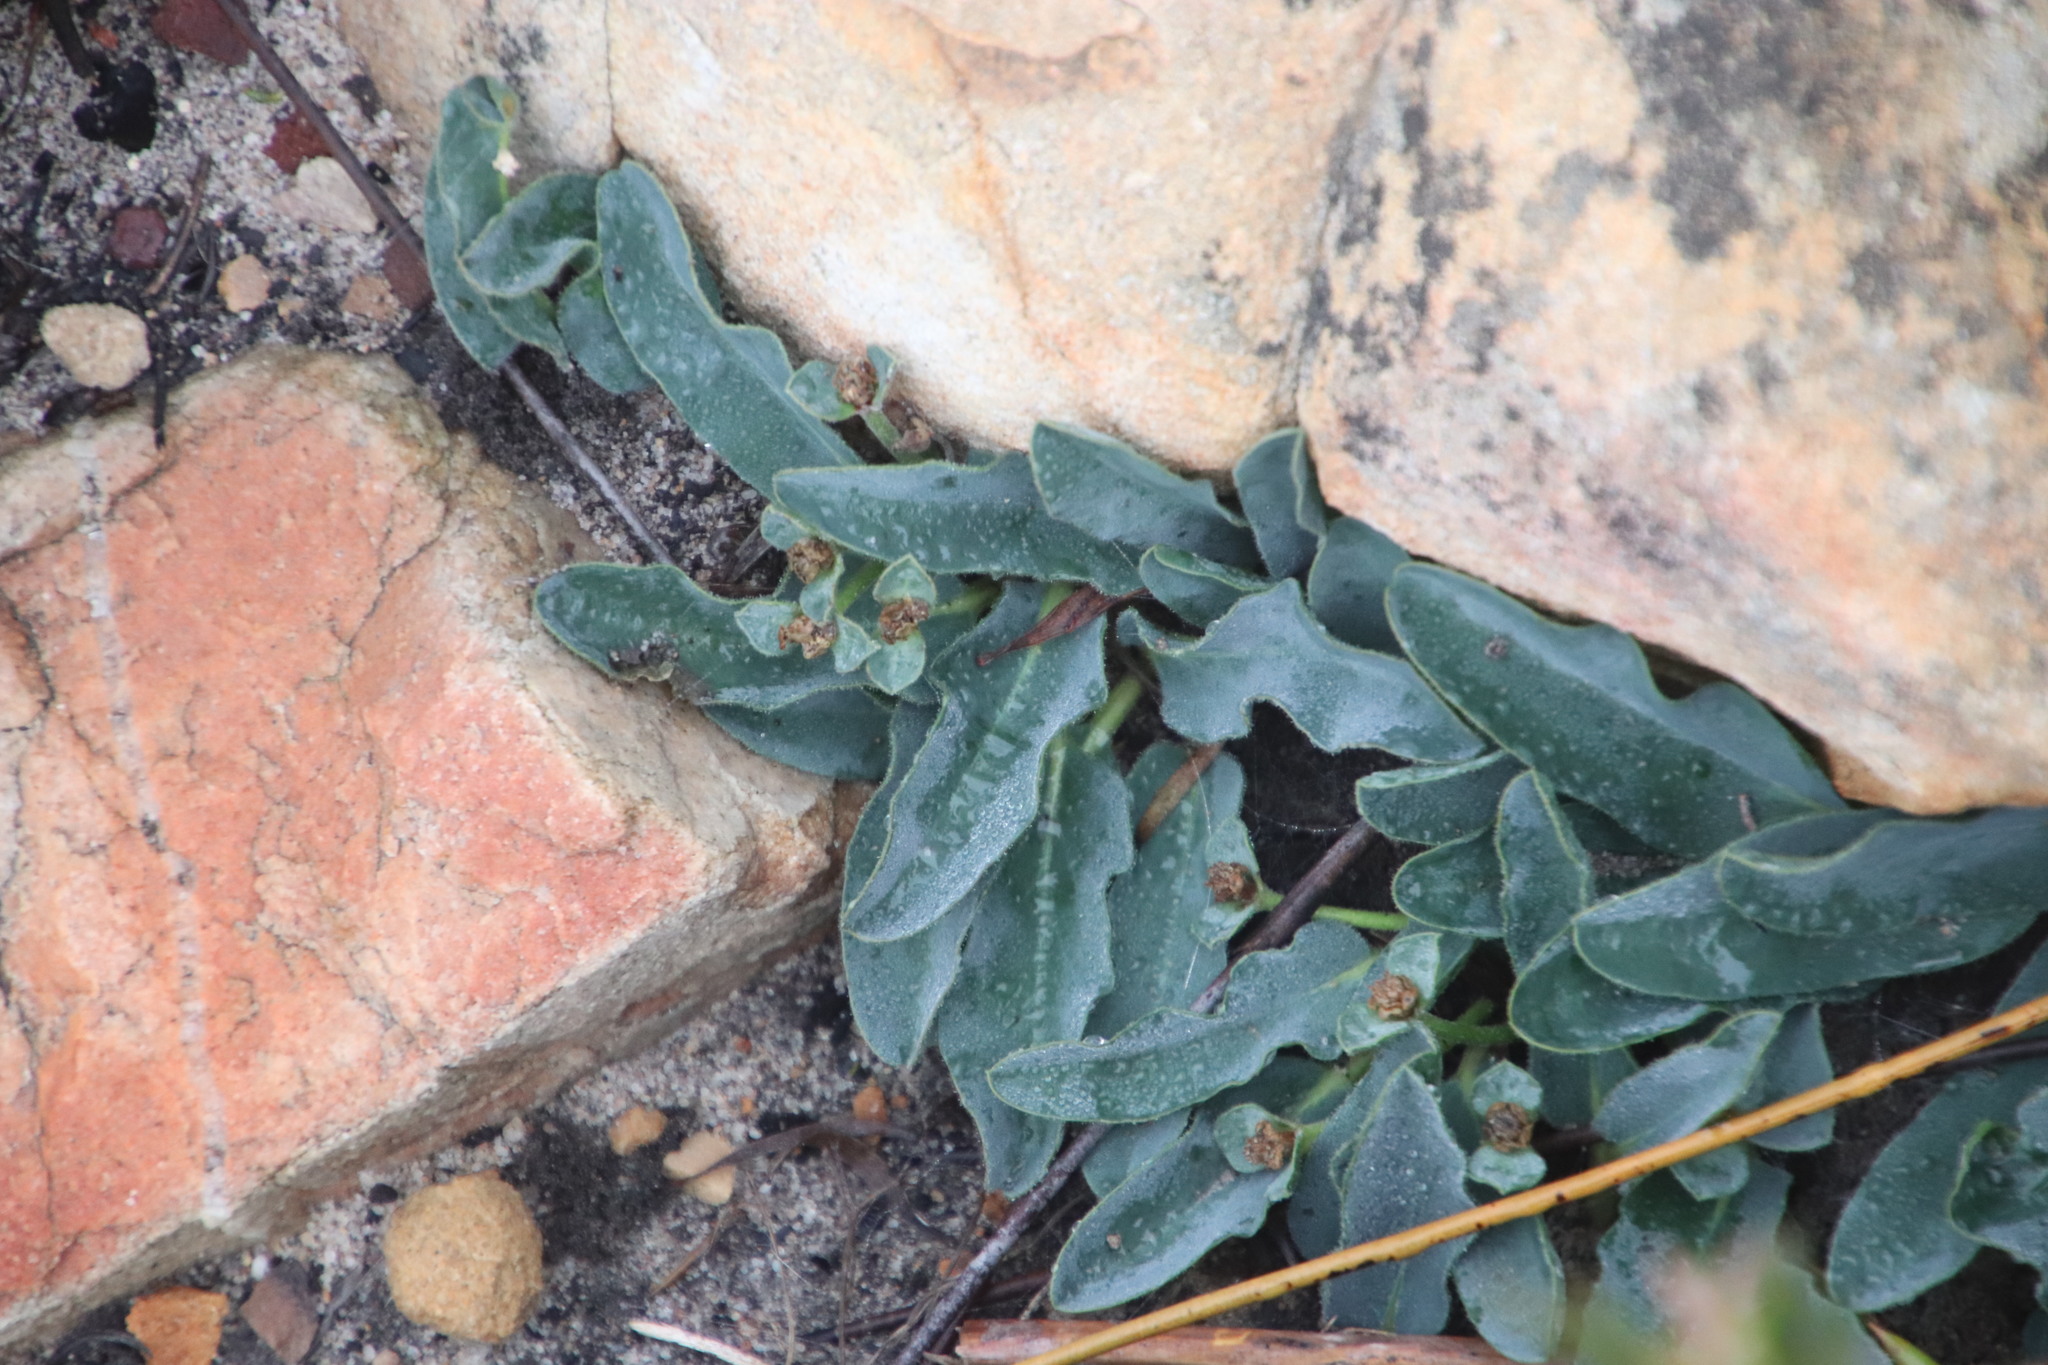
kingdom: Plantae
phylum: Tracheophyta
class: Magnoliopsida
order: Malpighiales
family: Euphorbiaceae
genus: Euphorbia
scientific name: Euphorbia tuberosa
